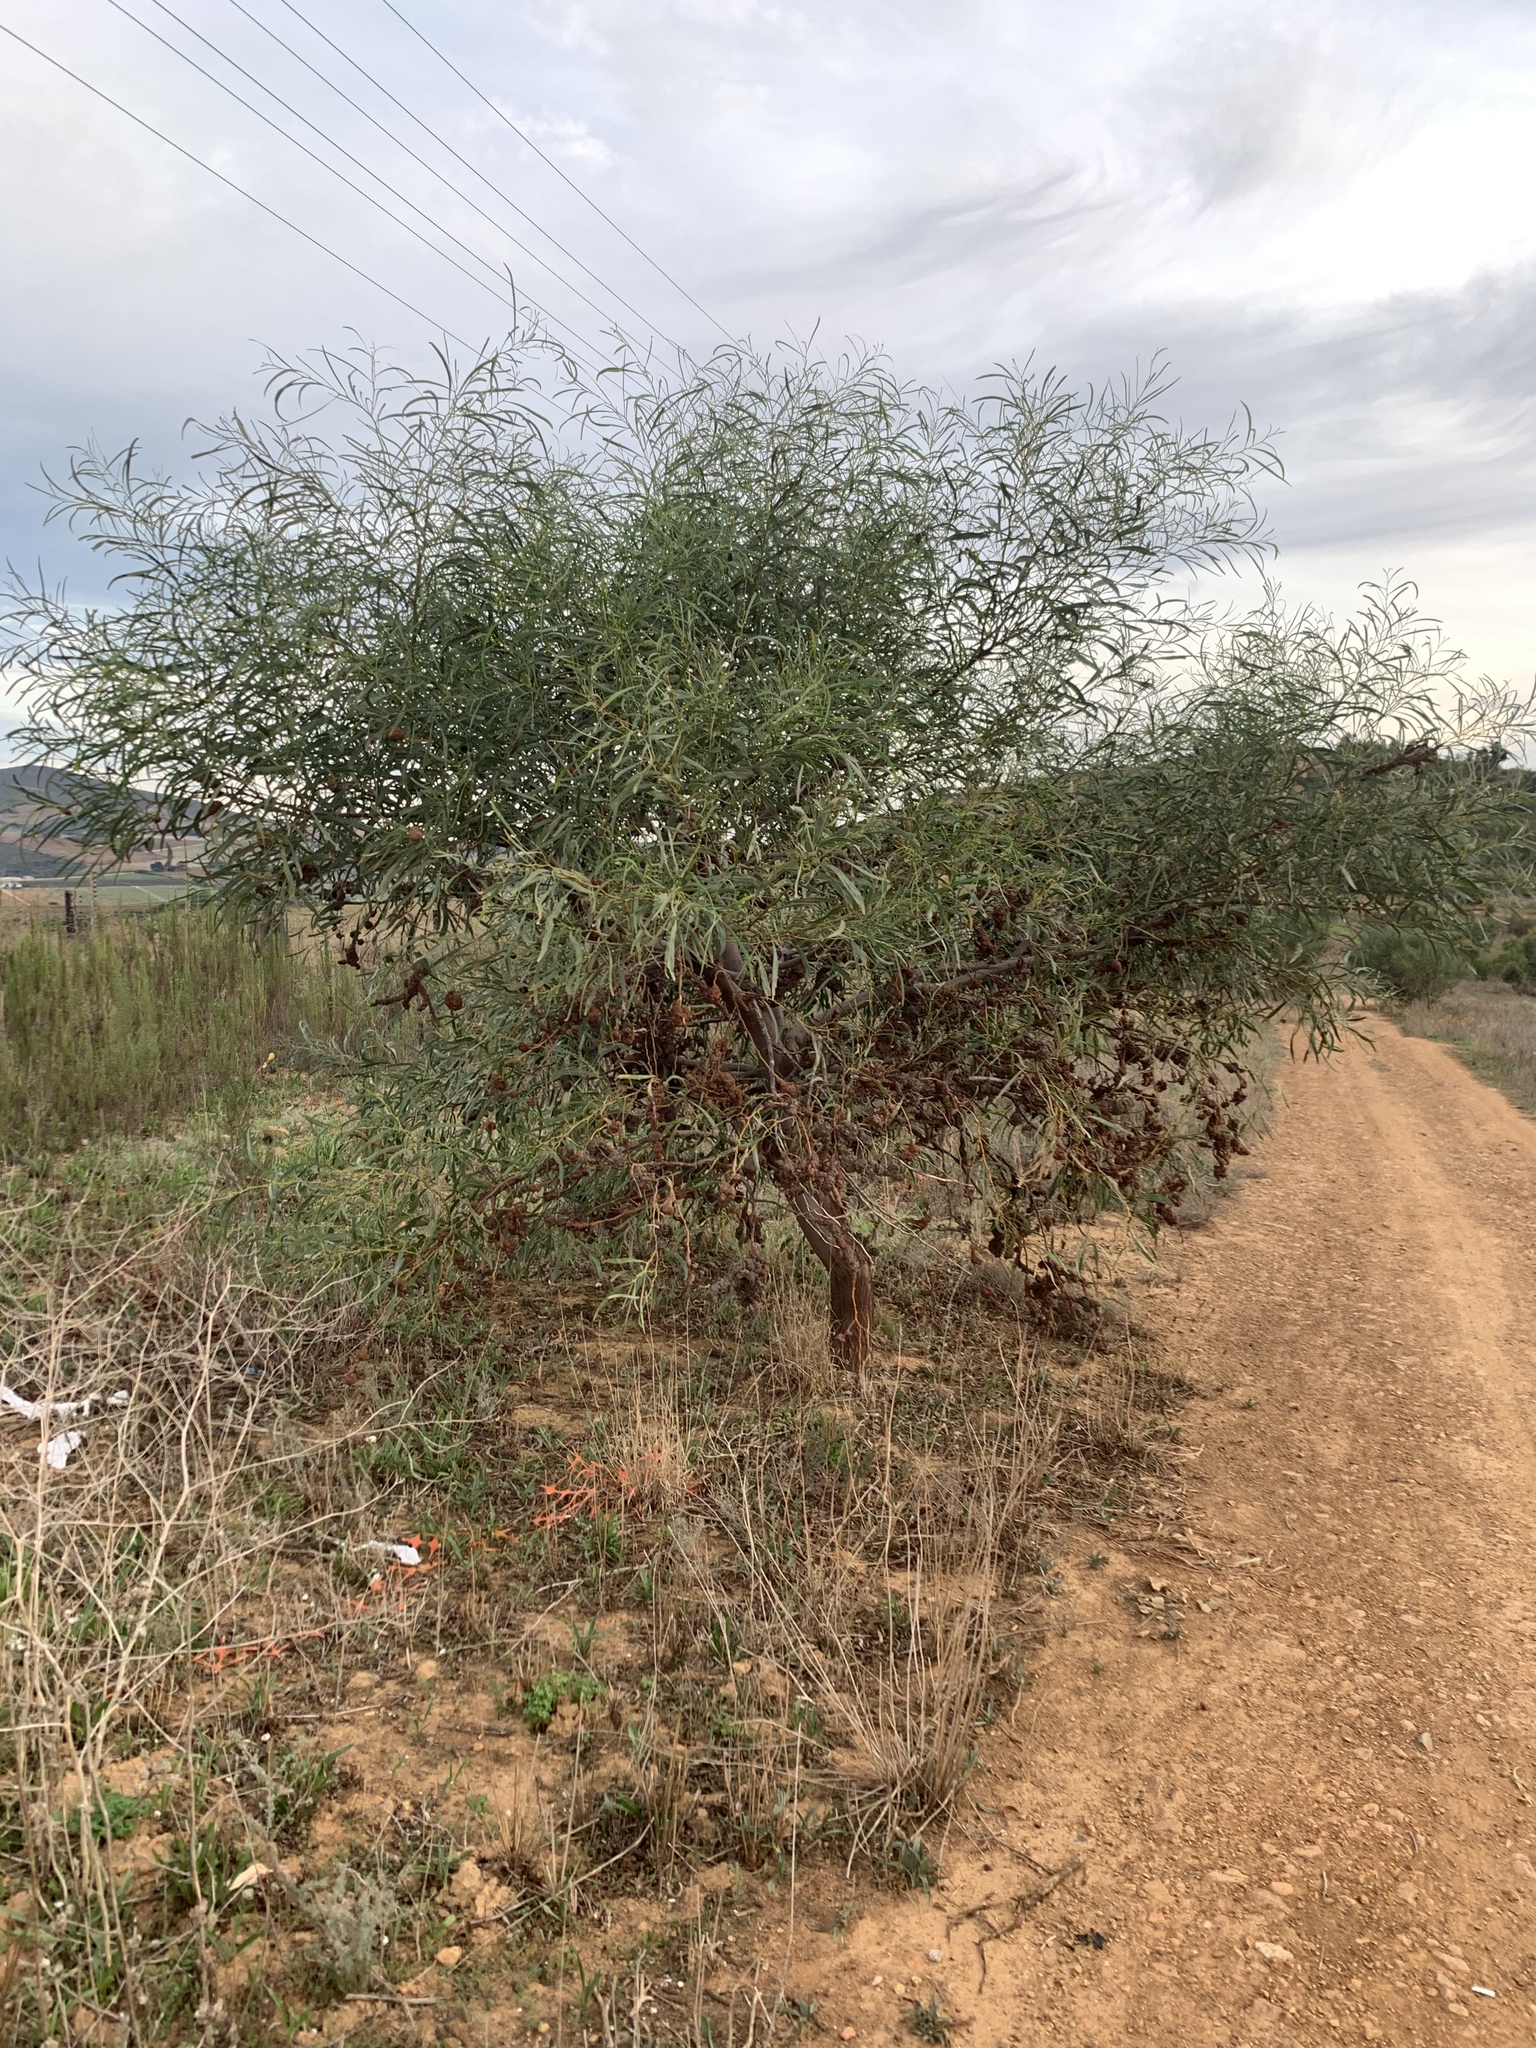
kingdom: Plantae
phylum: Tracheophyta
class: Magnoliopsida
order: Fabales
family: Fabaceae
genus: Acacia
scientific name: Acacia saligna
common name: Orange wattle
